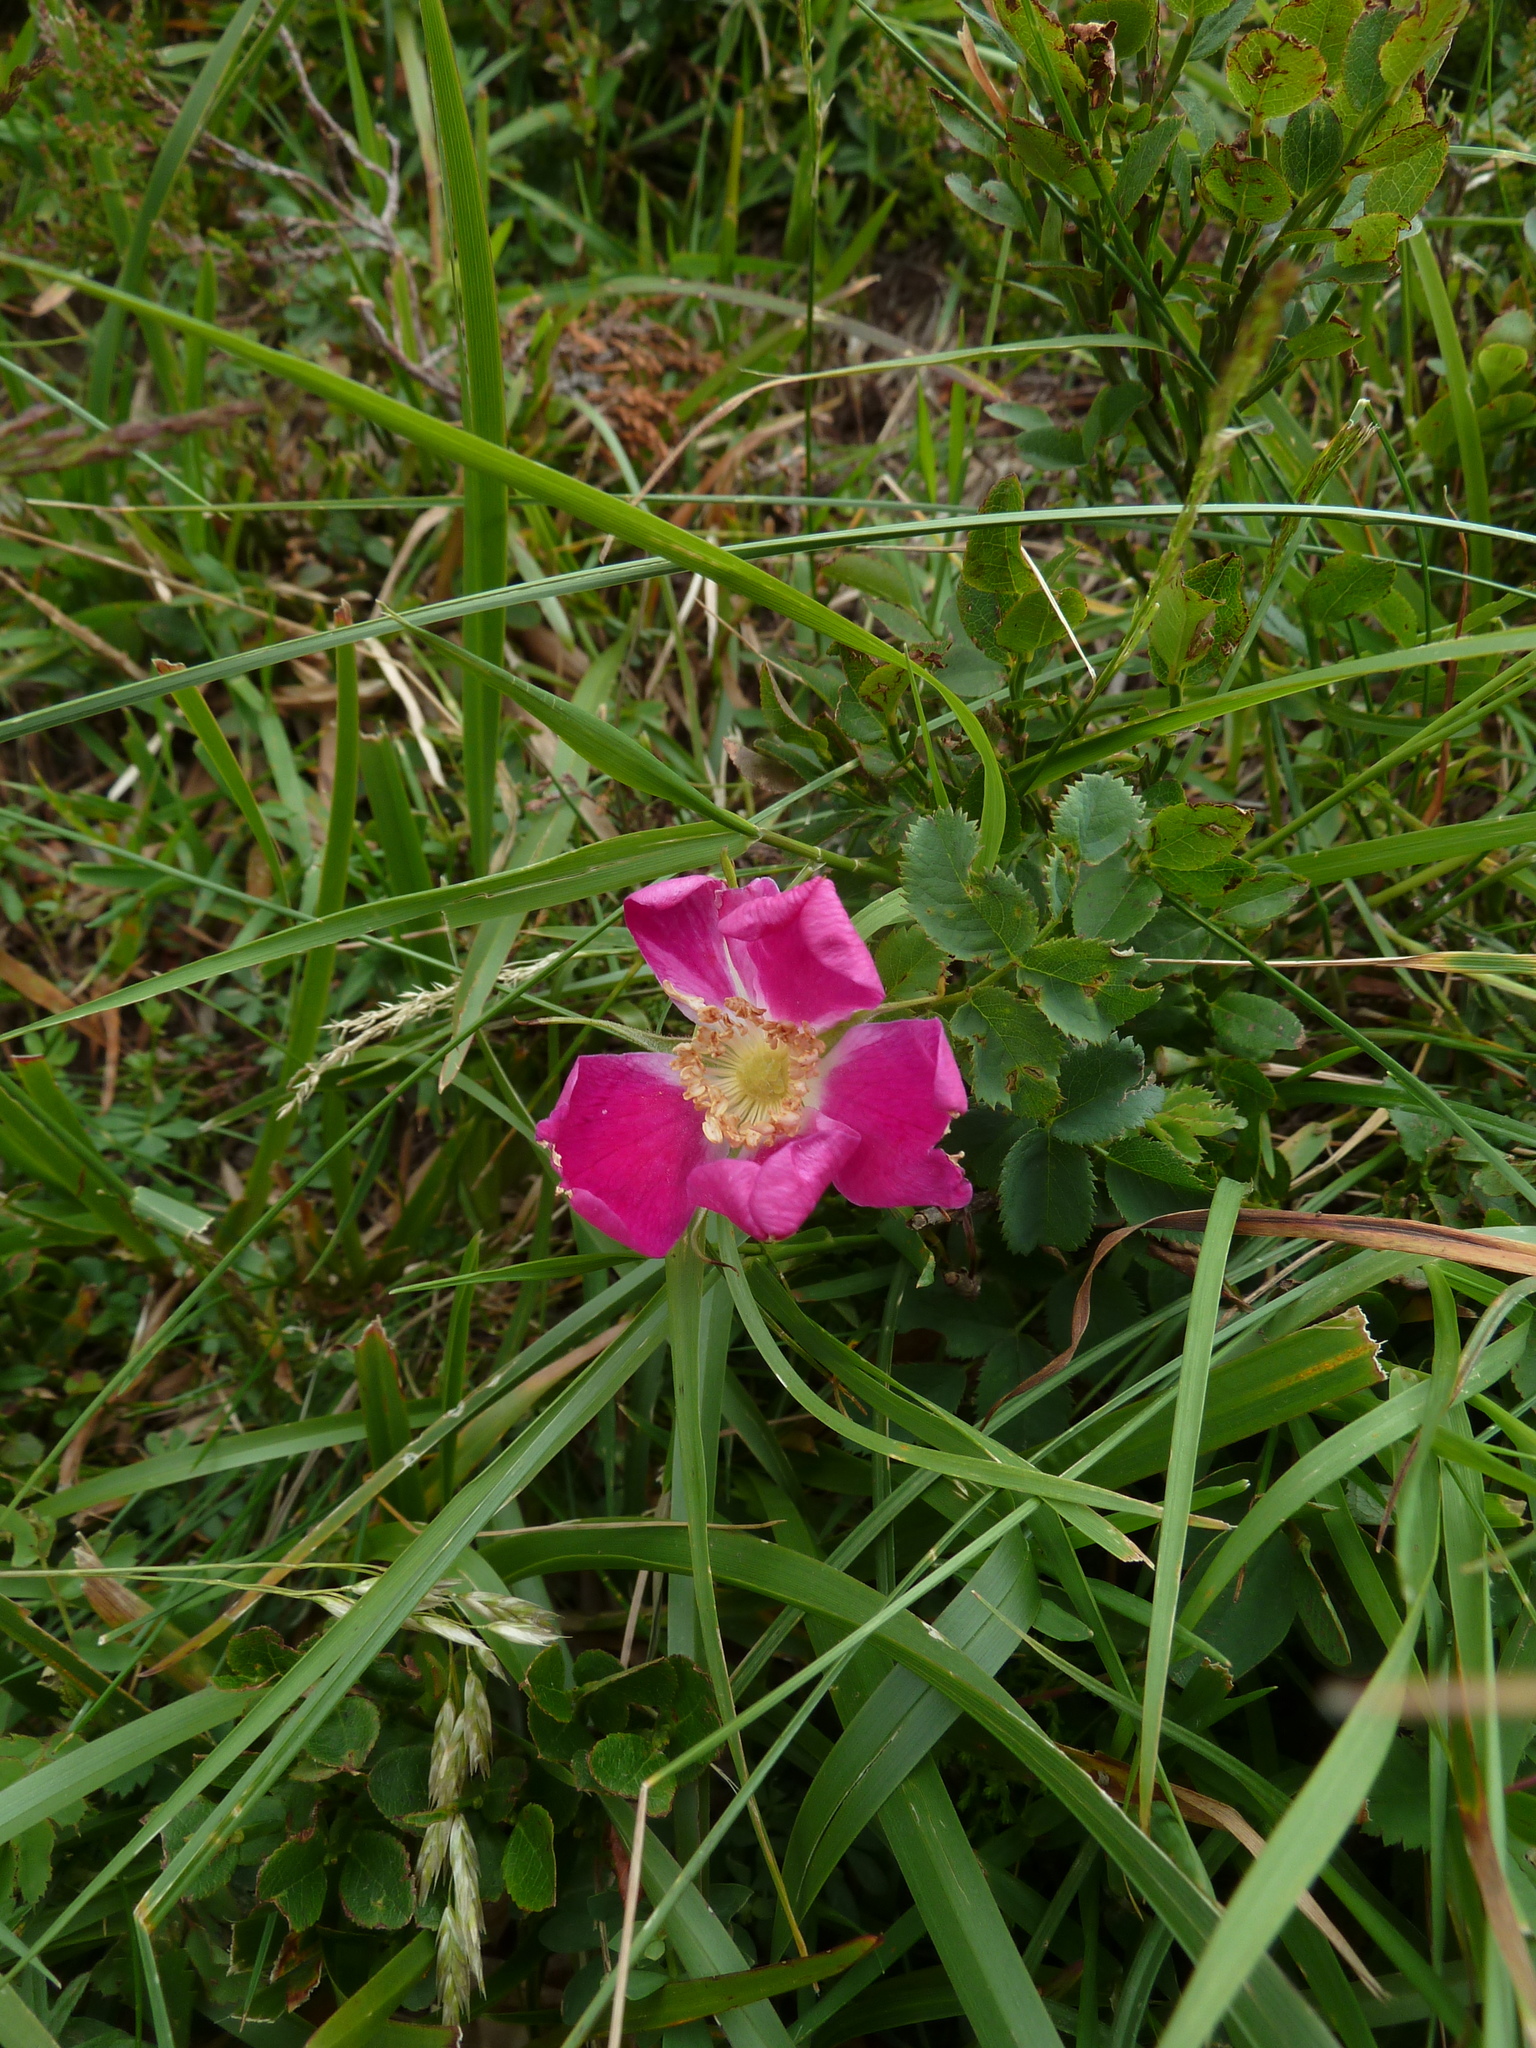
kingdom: Plantae
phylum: Tracheophyta
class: Magnoliopsida
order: Rosales
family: Rosaceae
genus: Rosa
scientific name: Rosa pendulina
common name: Alpine rose
